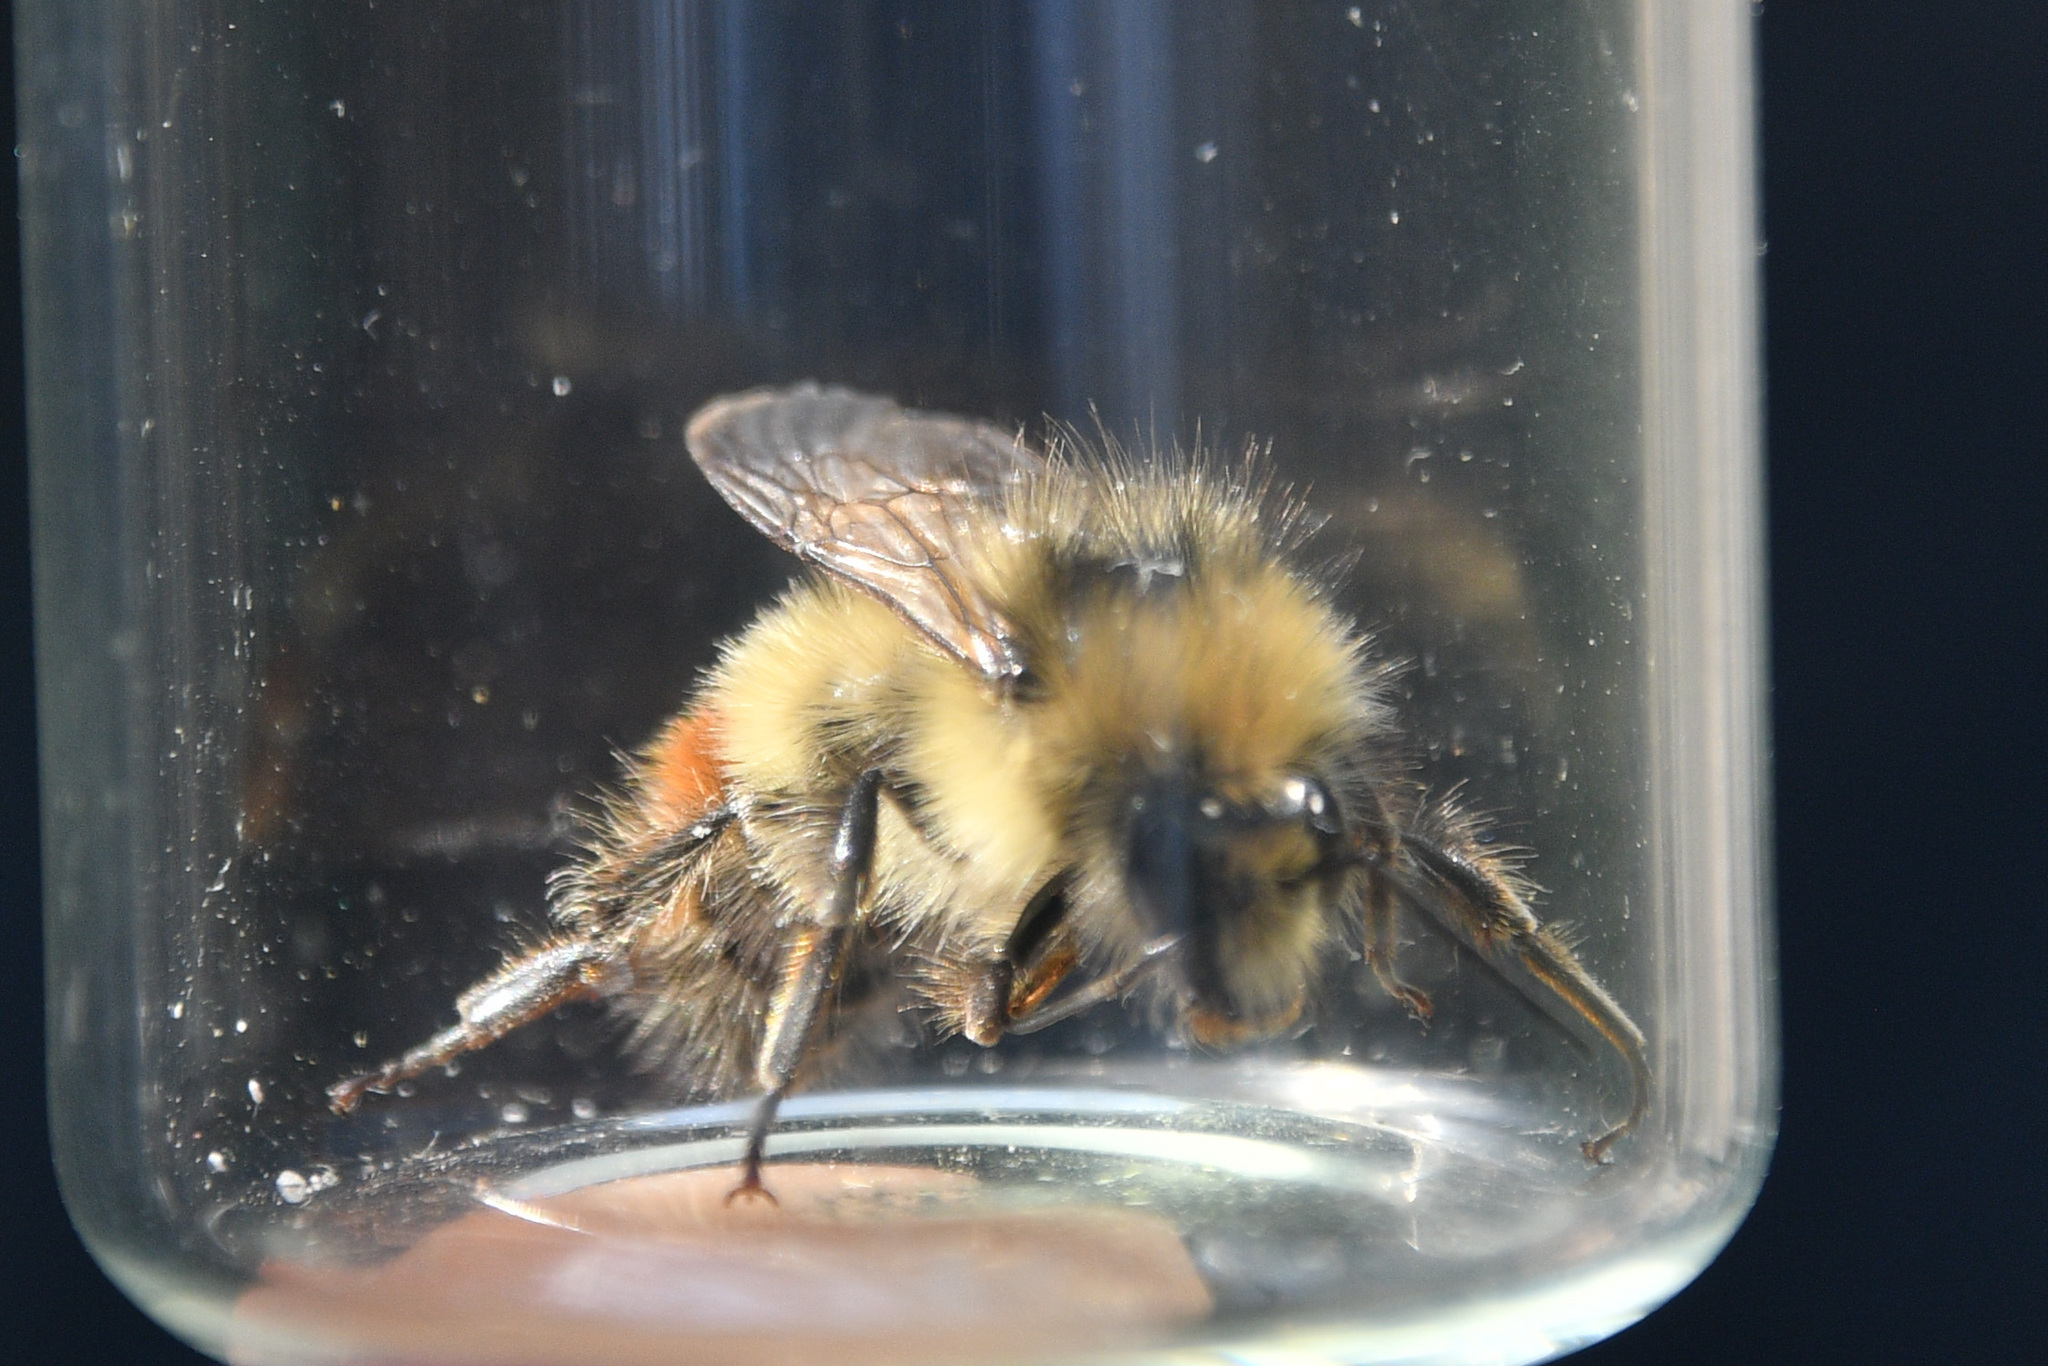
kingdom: Animalia
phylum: Arthropoda
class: Insecta
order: Hymenoptera
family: Apidae
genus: Bombus
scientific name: Bombus melanopygus
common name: Black tail bumble bee
